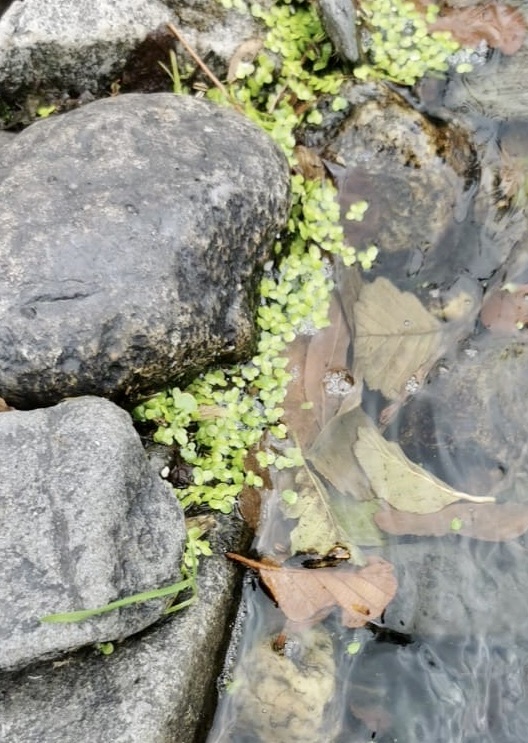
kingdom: Plantae
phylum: Tracheophyta
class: Liliopsida
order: Alismatales
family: Araceae
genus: Lemna
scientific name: Lemna minor
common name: Common duckweed
